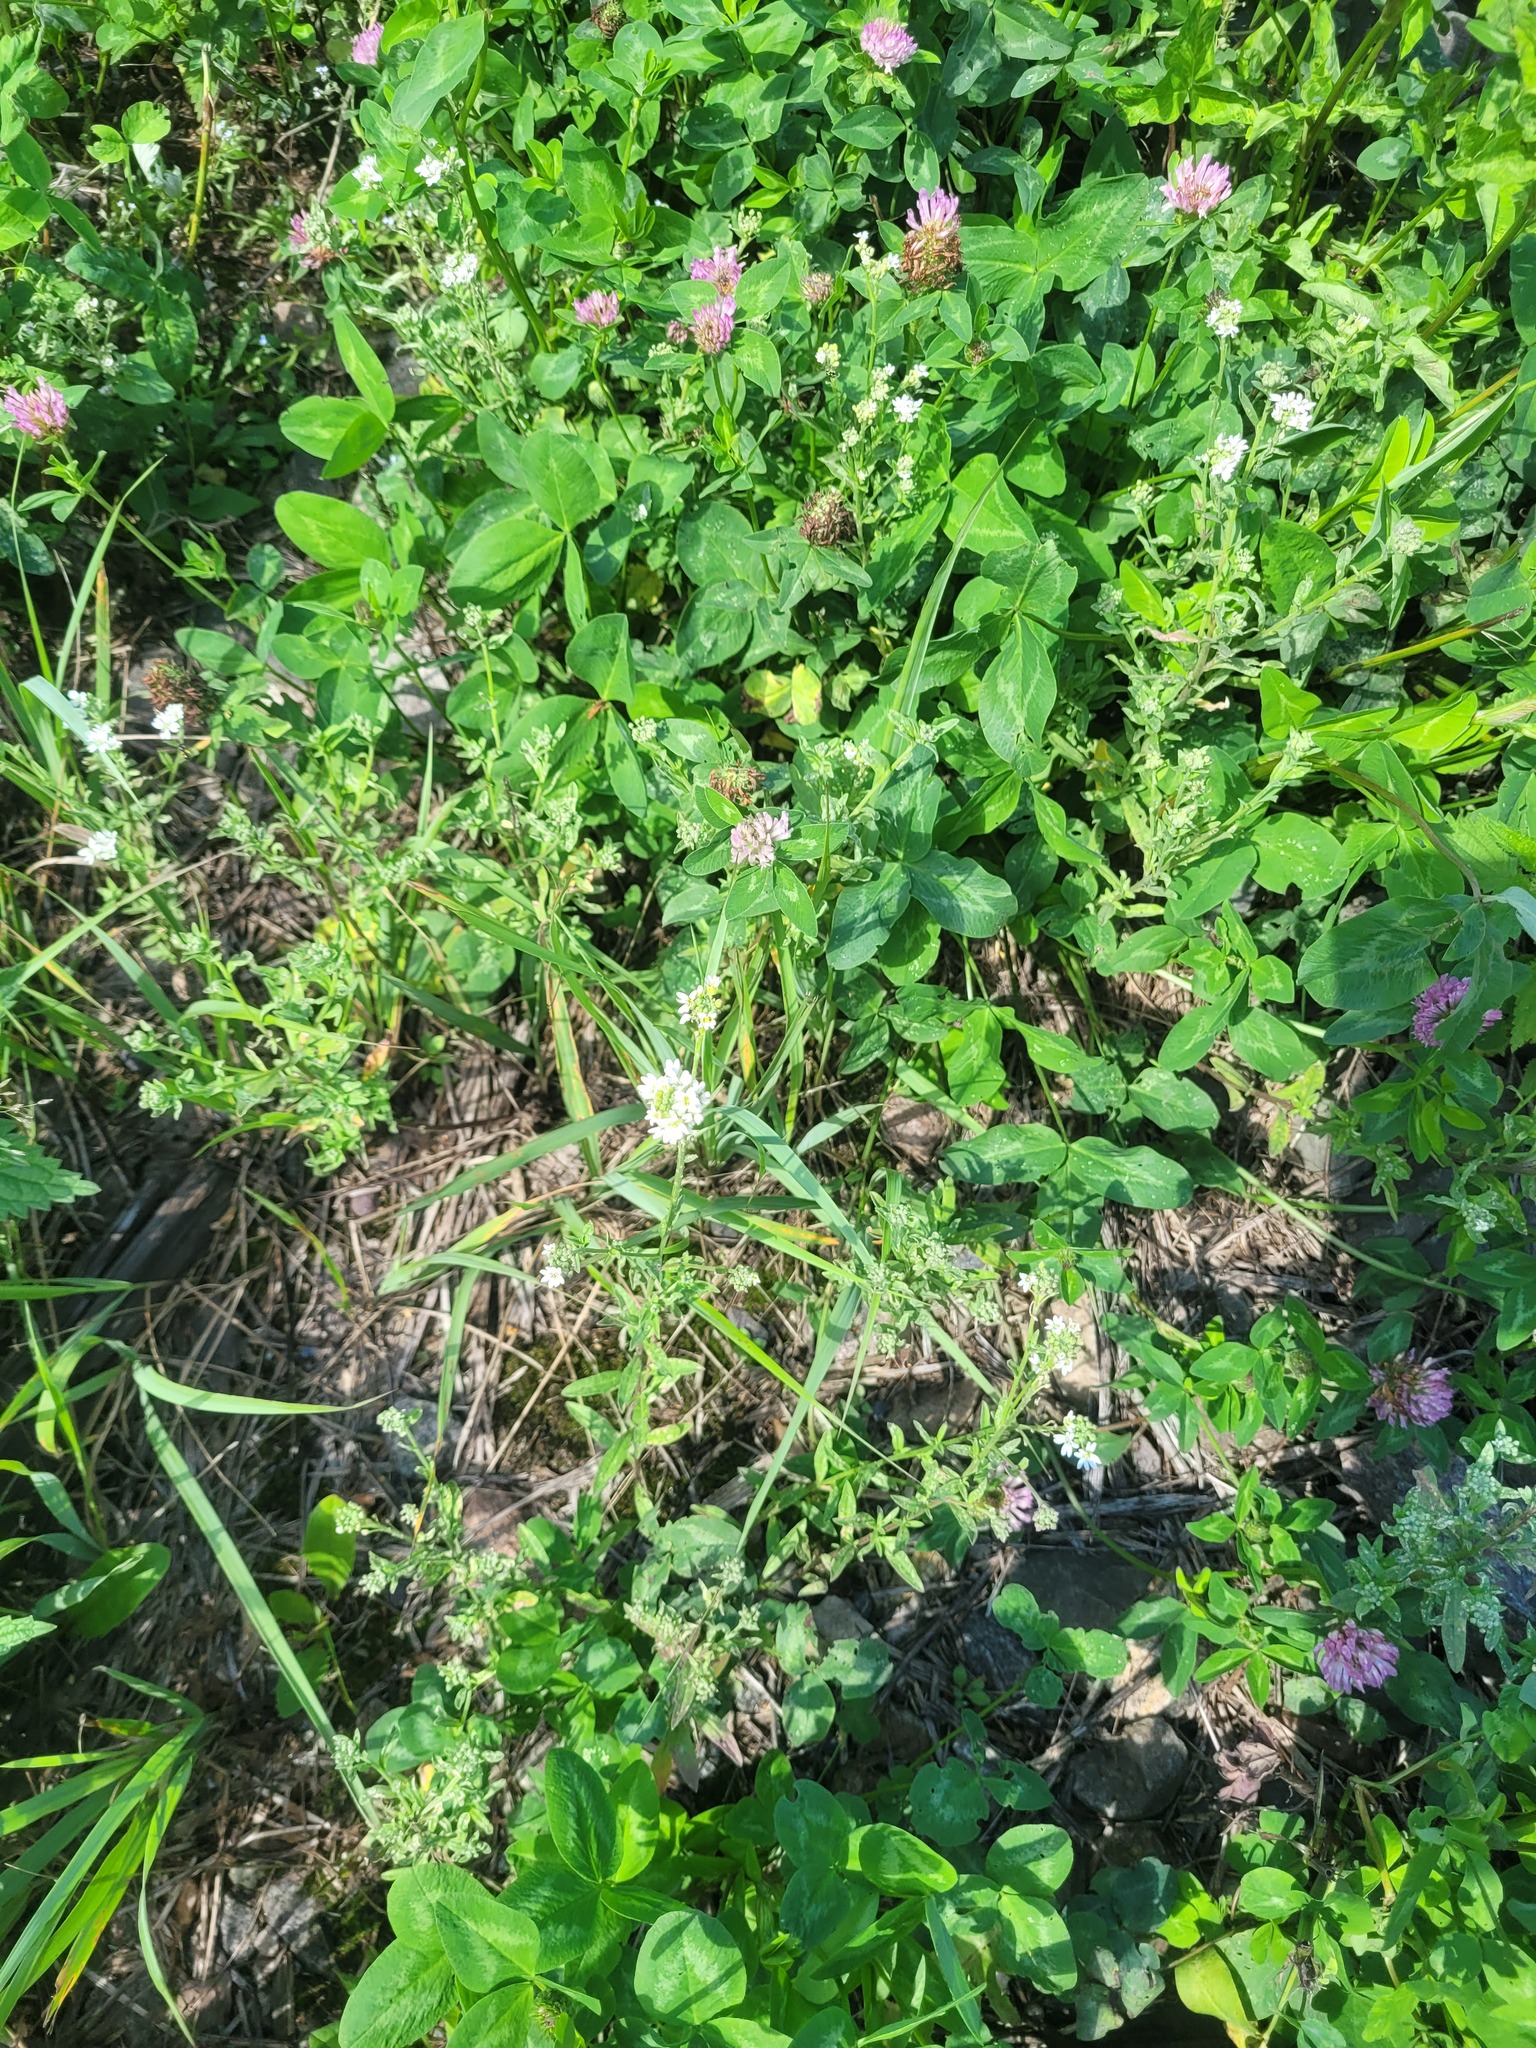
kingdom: Plantae
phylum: Tracheophyta
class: Magnoliopsida
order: Brassicales
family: Brassicaceae
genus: Berteroa
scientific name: Berteroa incana
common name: Hoary alison
